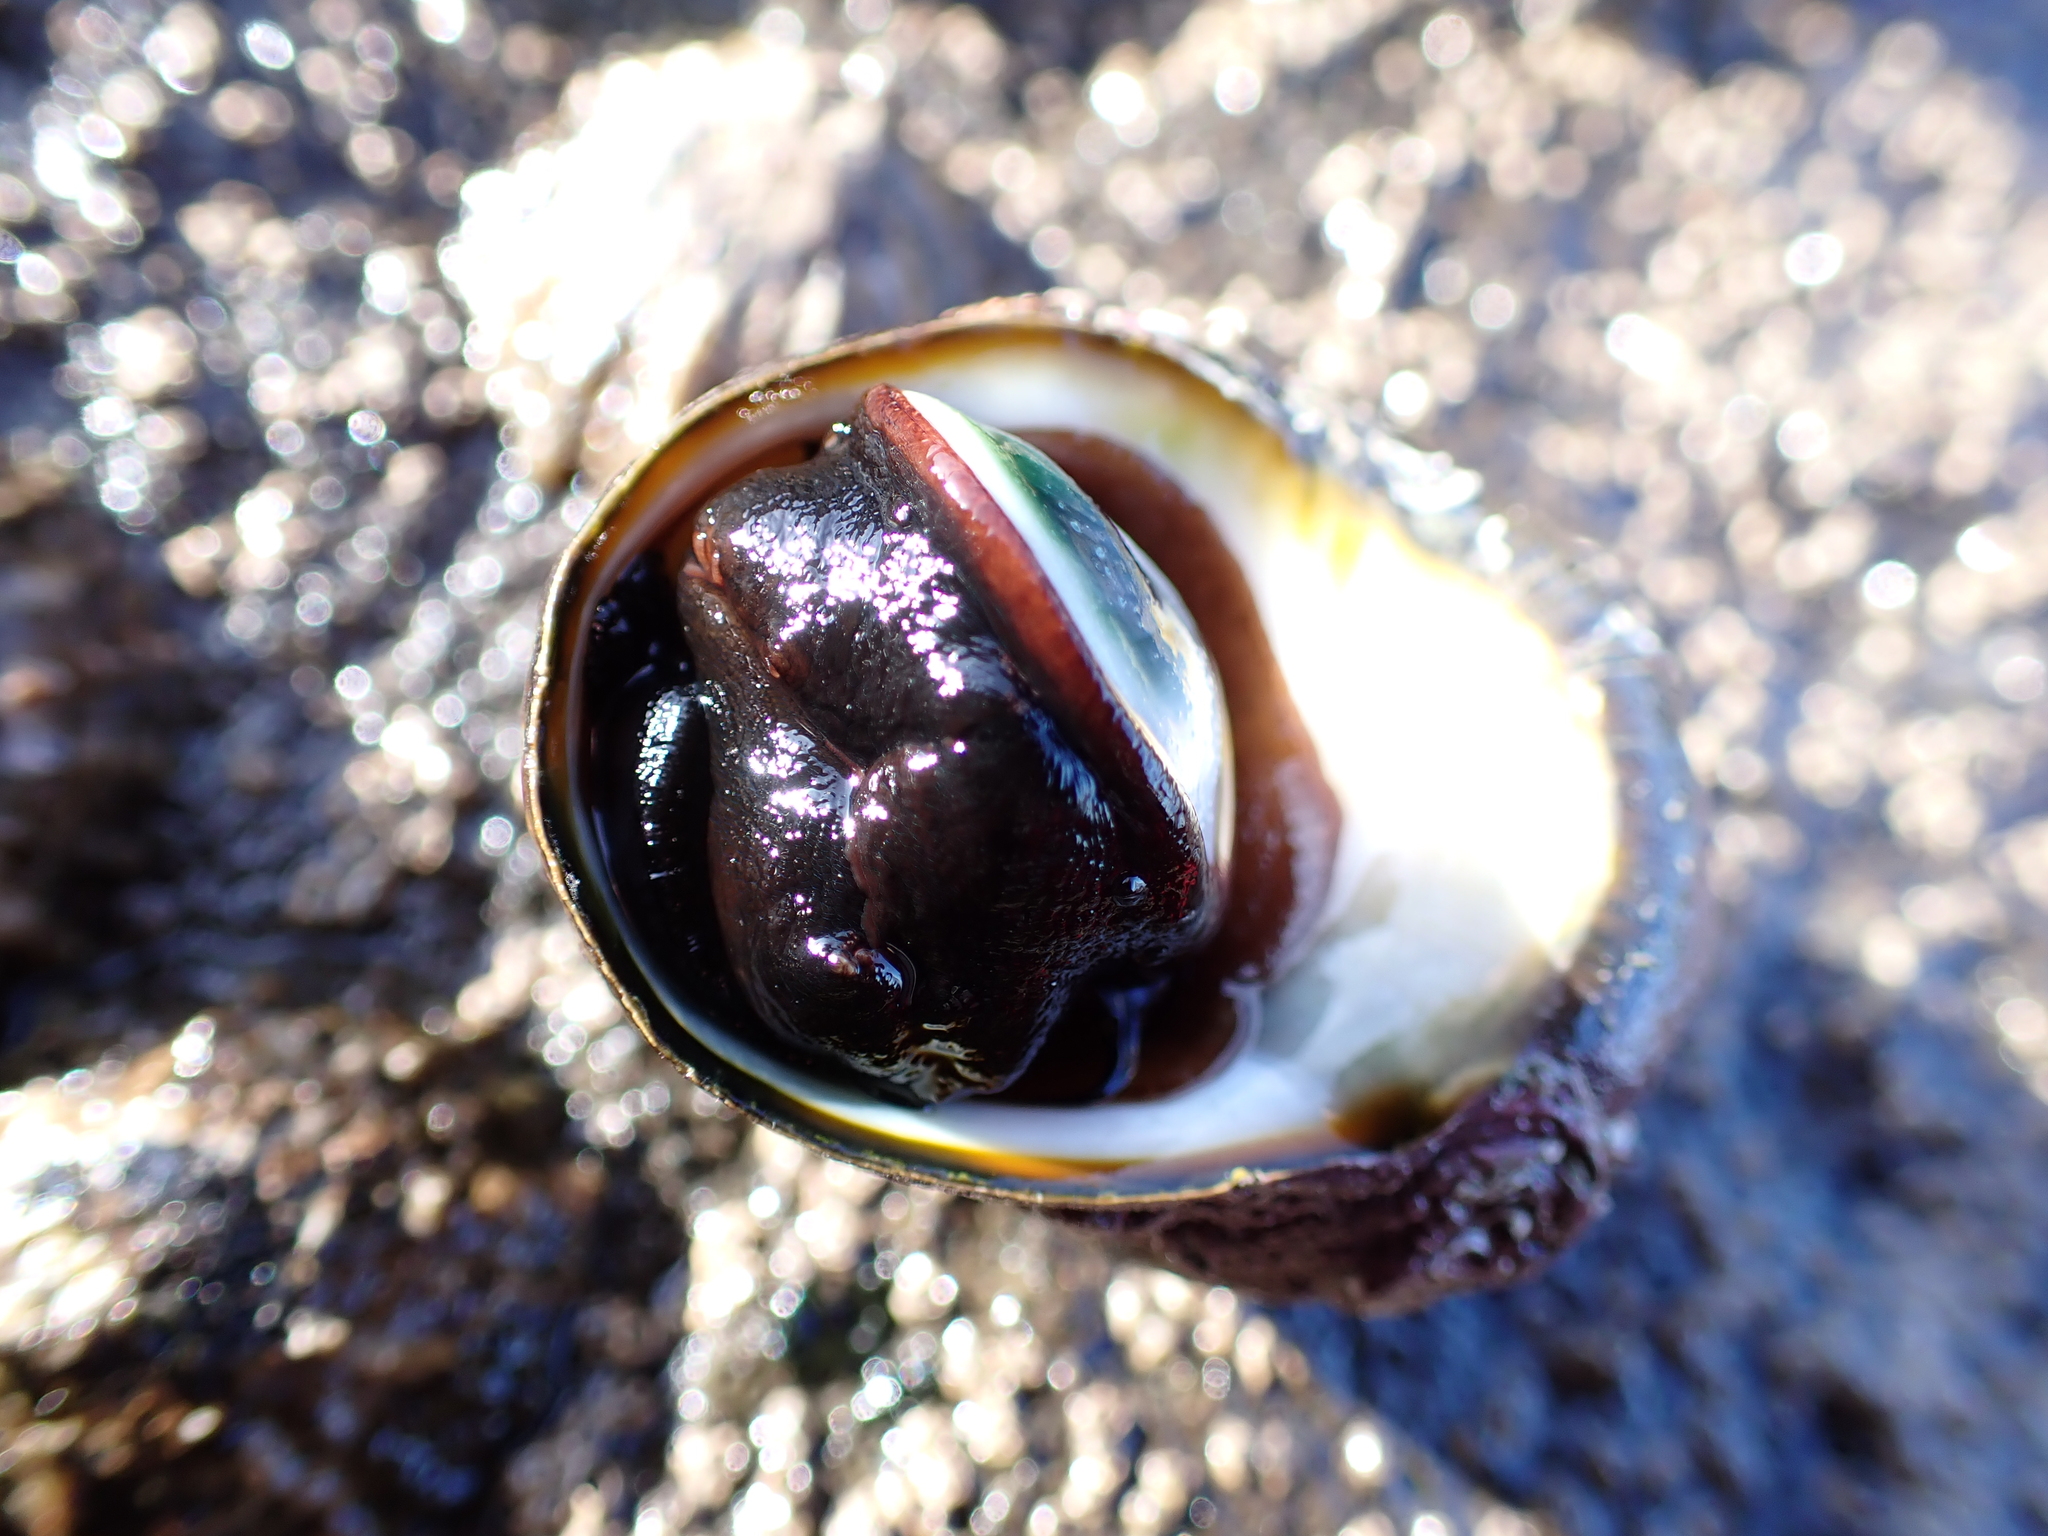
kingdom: Animalia
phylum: Mollusca
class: Gastropoda
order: Trochida
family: Turbinidae
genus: Lunella
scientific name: Lunella smaragda
